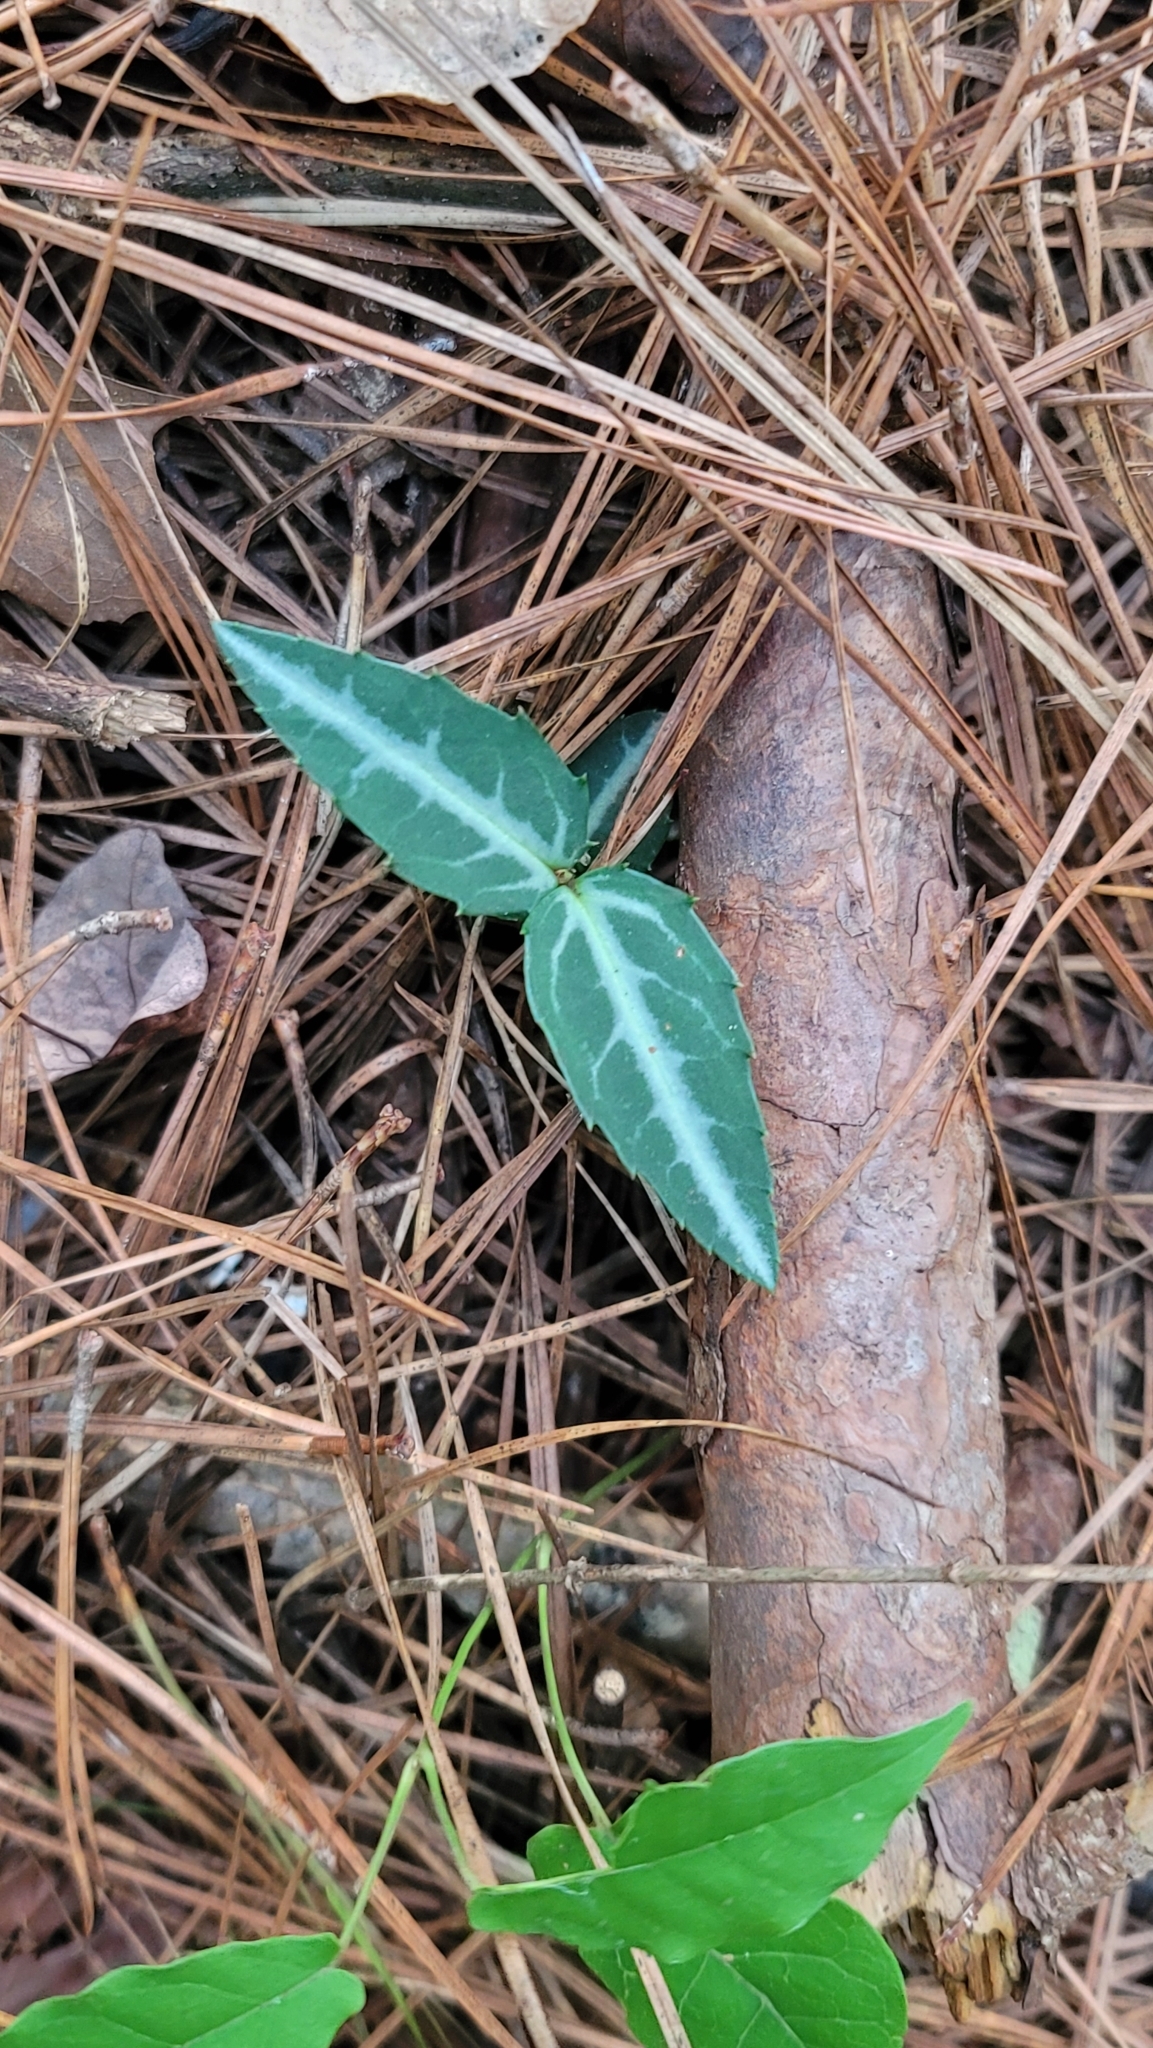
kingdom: Plantae
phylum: Tracheophyta
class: Magnoliopsida
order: Ericales
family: Ericaceae
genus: Chimaphila
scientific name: Chimaphila maculata
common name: Spotted pipsissewa
